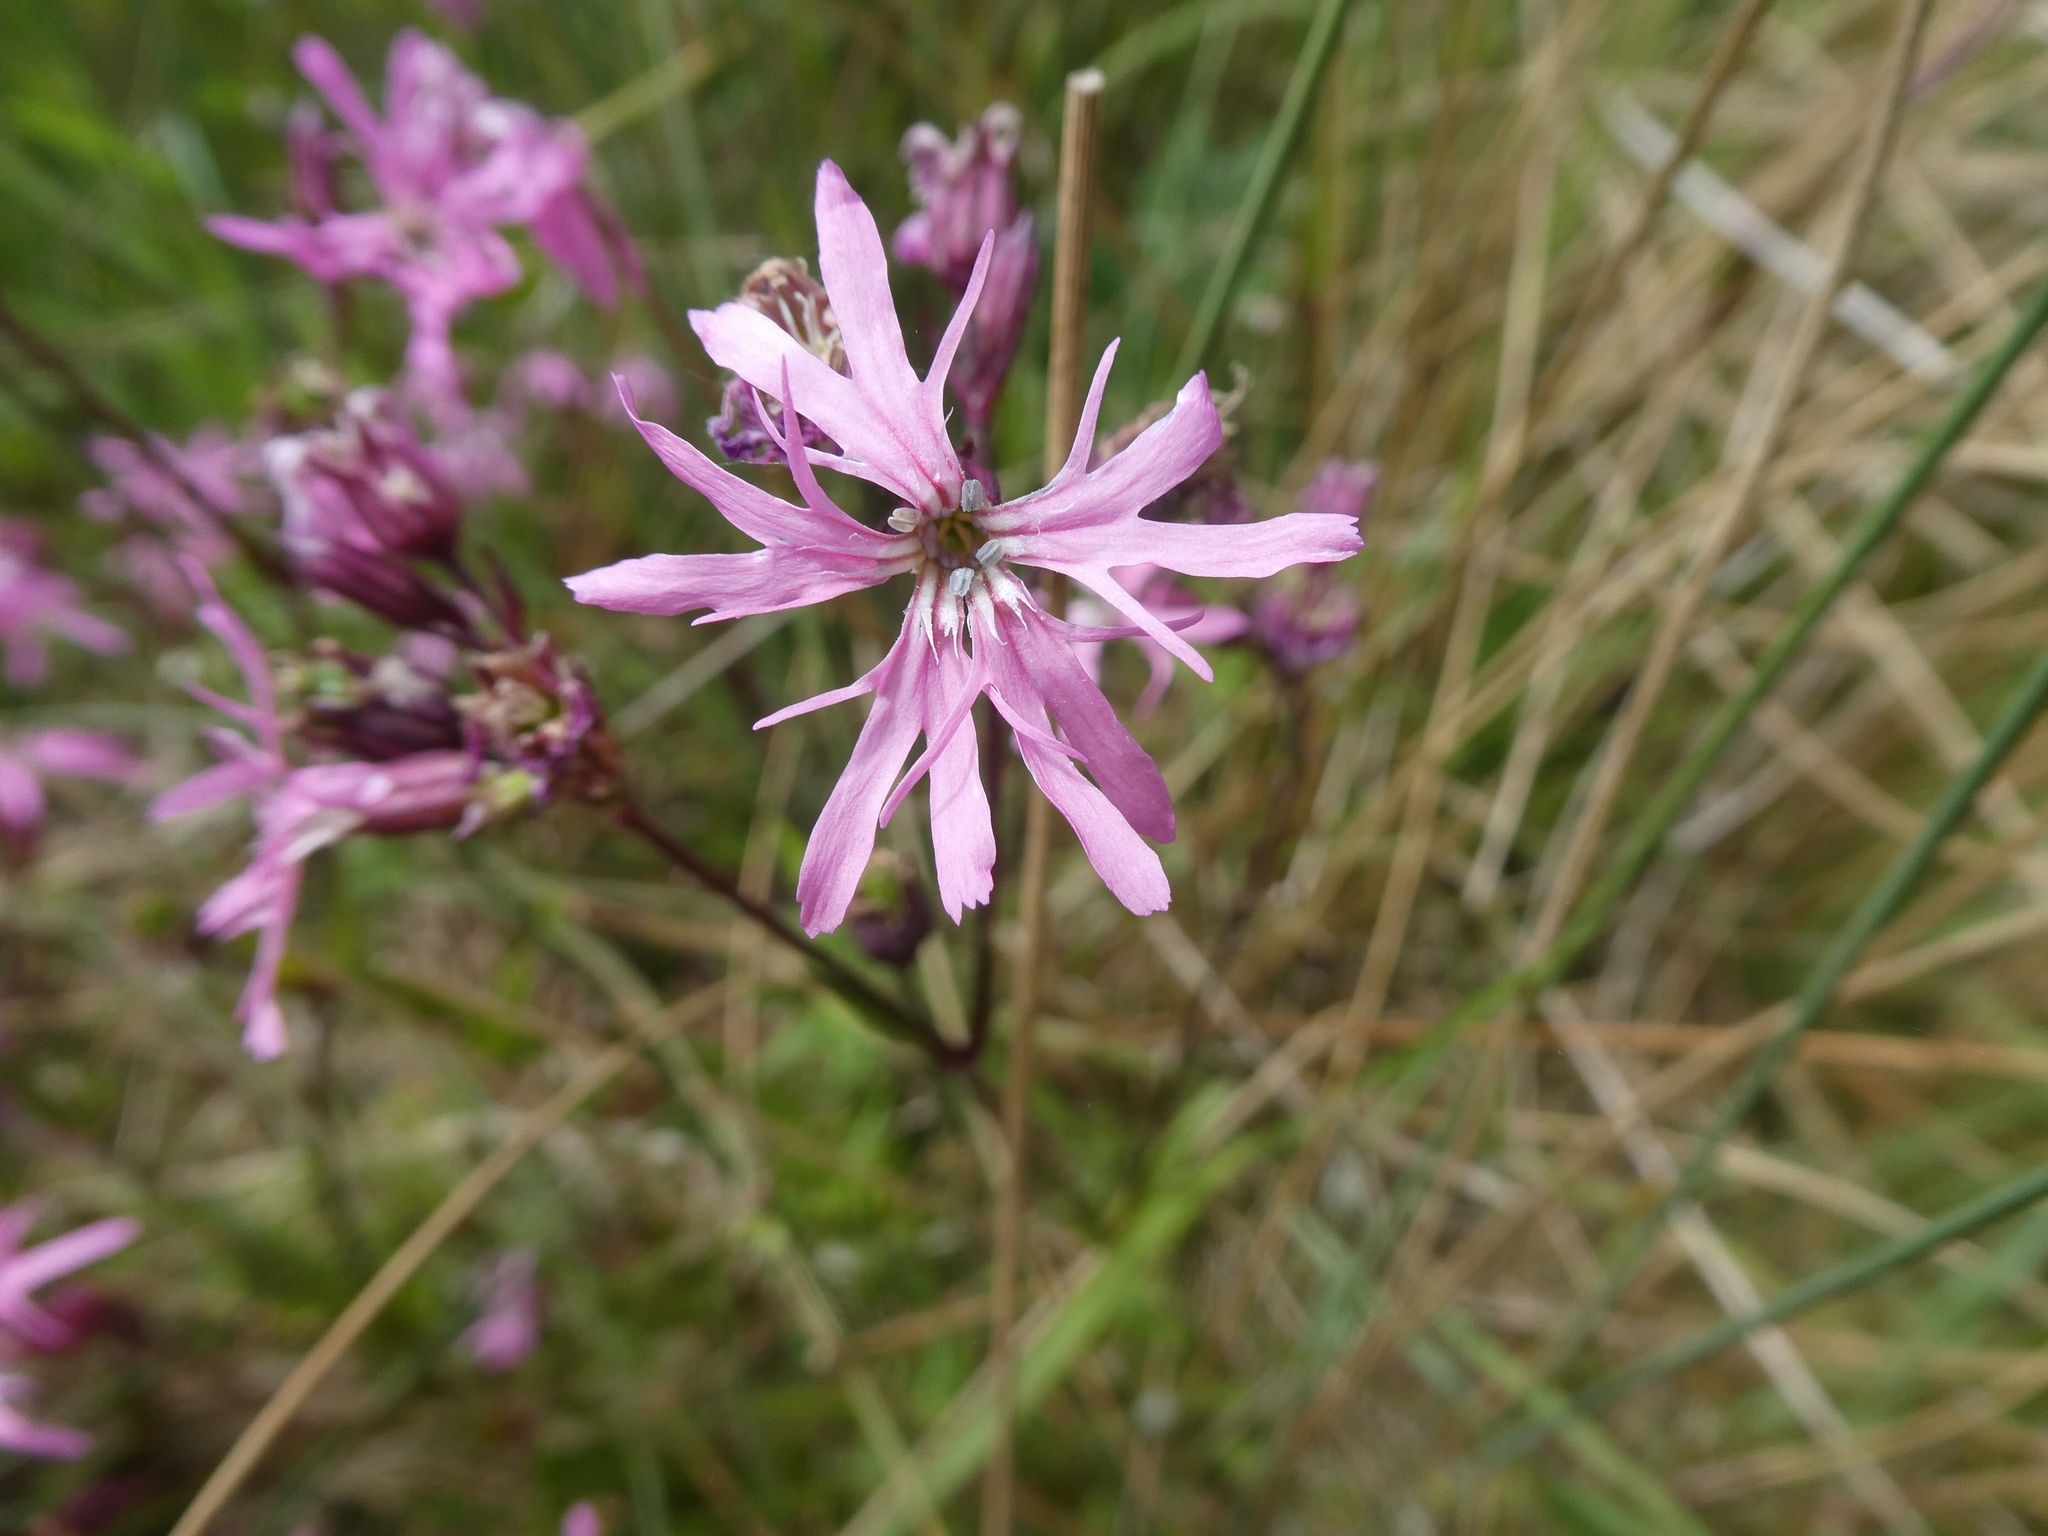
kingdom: Plantae
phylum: Tracheophyta
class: Magnoliopsida
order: Caryophyllales
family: Caryophyllaceae
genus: Silene
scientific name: Silene flos-cuculi
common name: Ragged-robin
